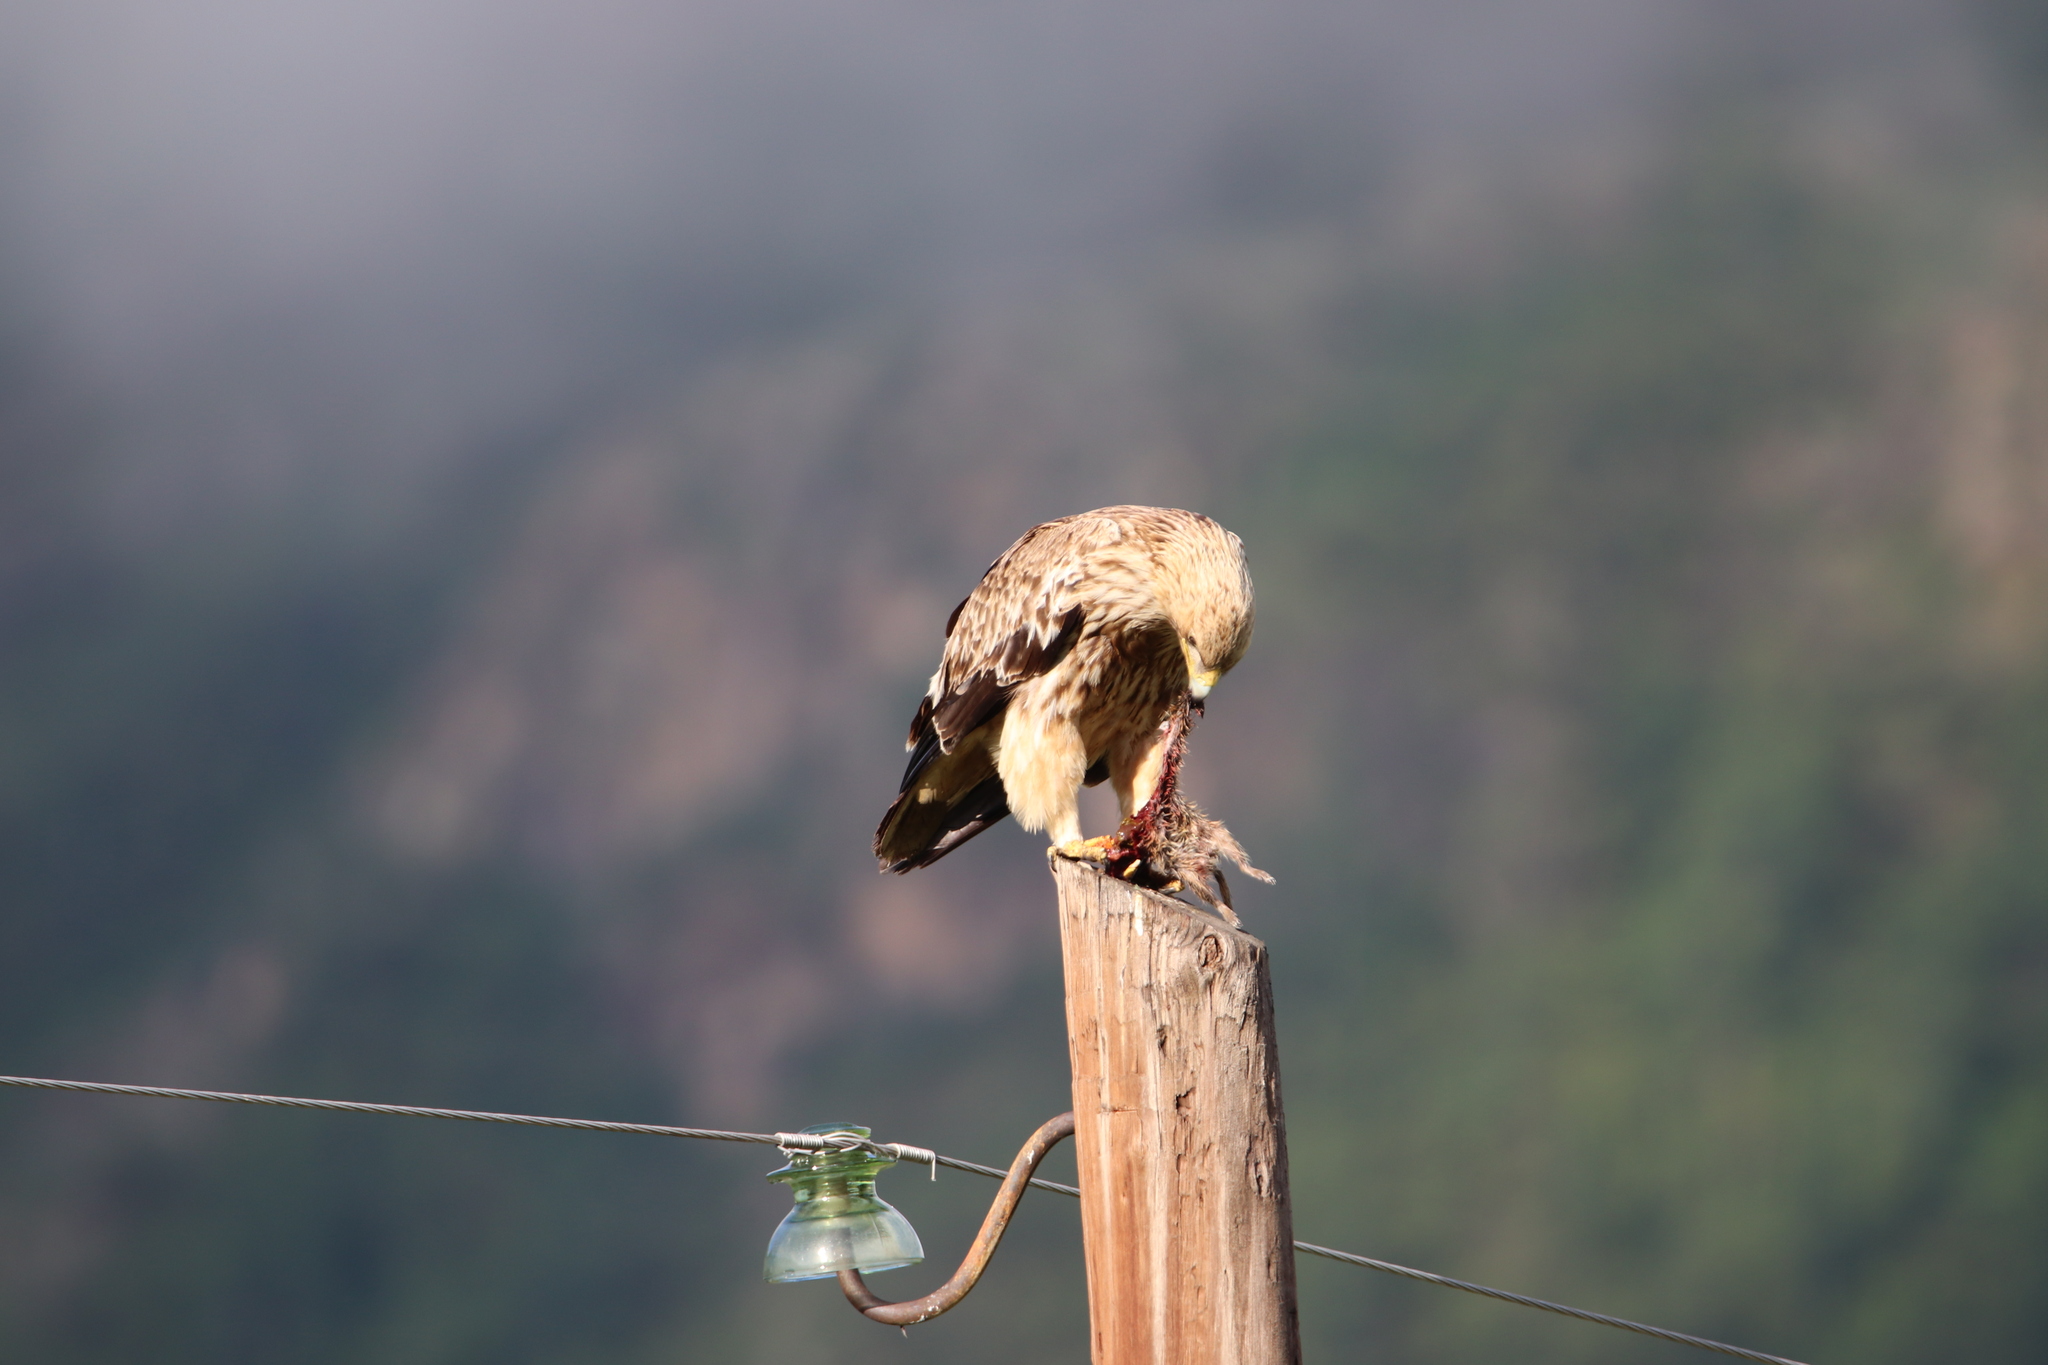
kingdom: Animalia
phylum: Chordata
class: Aves
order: Accipitriformes
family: Accipitridae
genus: Aquila
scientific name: Aquila heliaca
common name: Eastern imperial eagle
